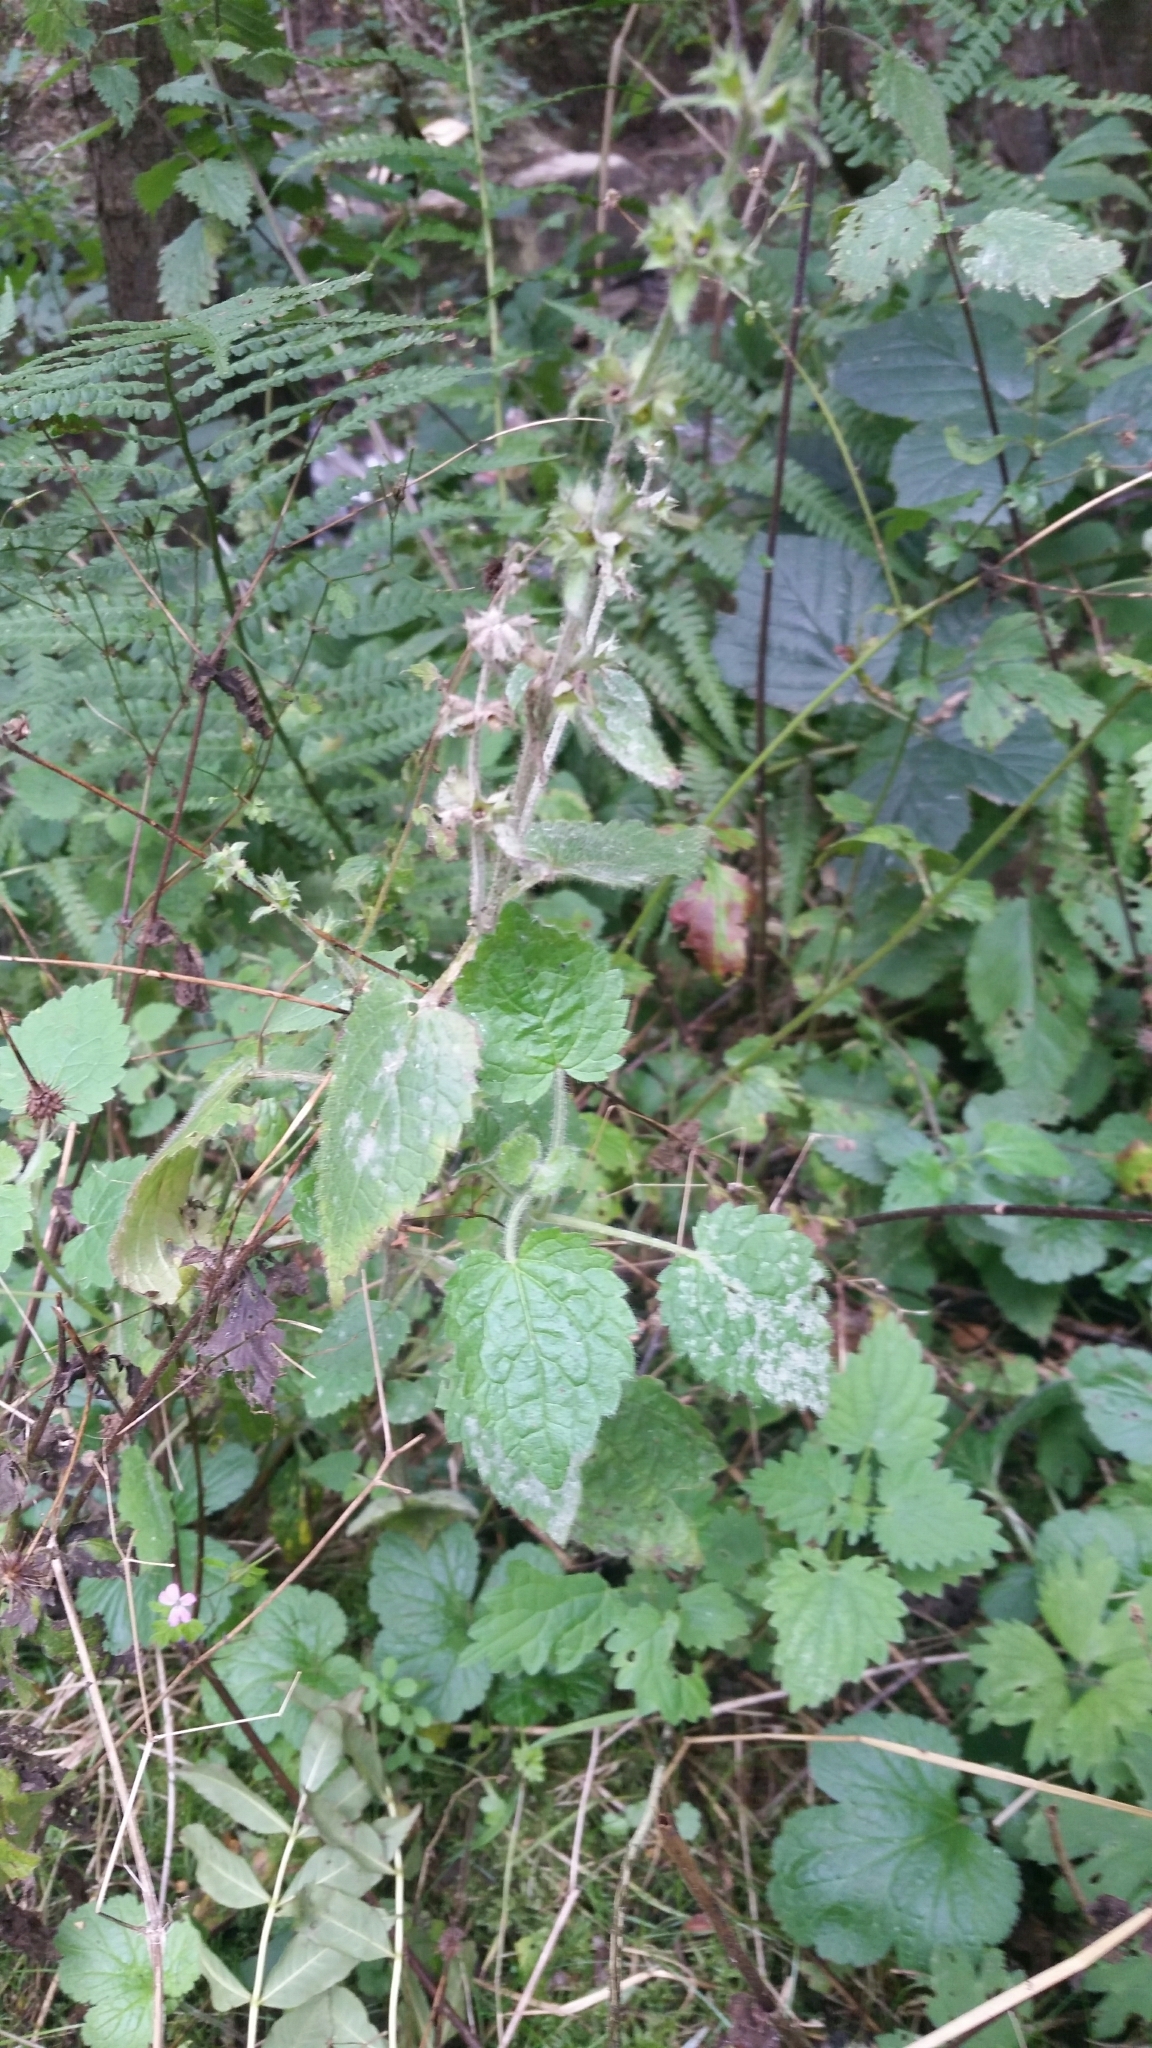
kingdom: Plantae
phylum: Tracheophyta
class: Magnoliopsida
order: Lamiales
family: Lamiaceae
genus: Stachys
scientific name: Stachys sylvatica
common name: Hedge woundwort
